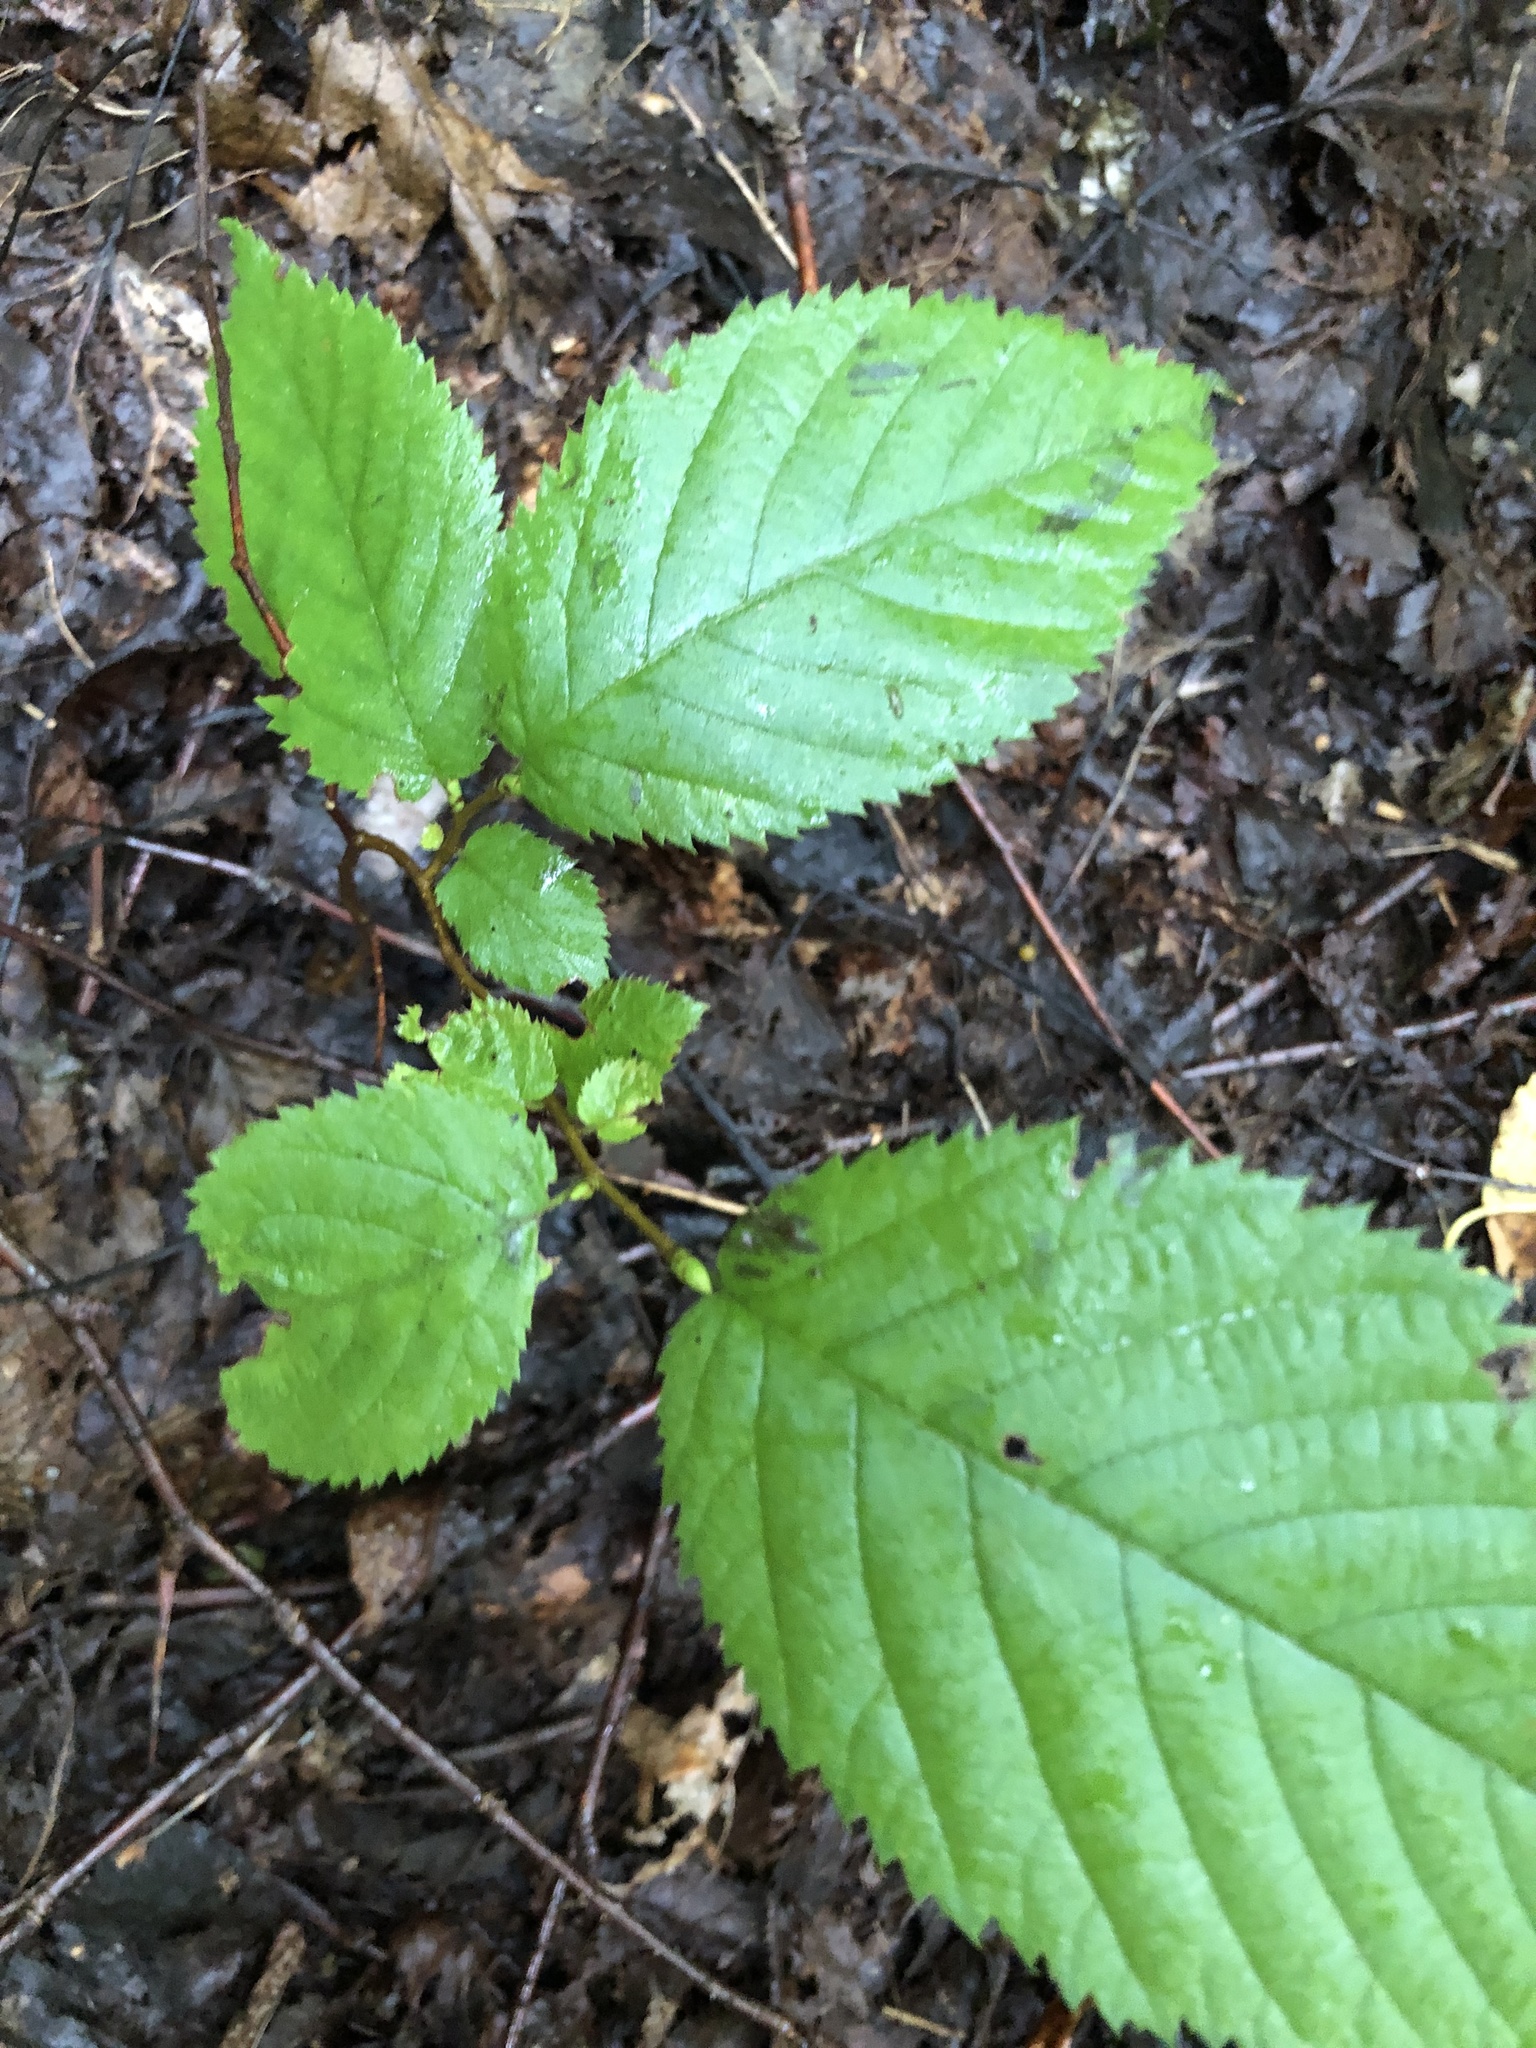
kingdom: Plantae
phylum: Tracheophyta
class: Magnoliopsida
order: Fagales
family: Betulaceae
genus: Betula
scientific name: Betula alleghaniensis
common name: Yellow birch
